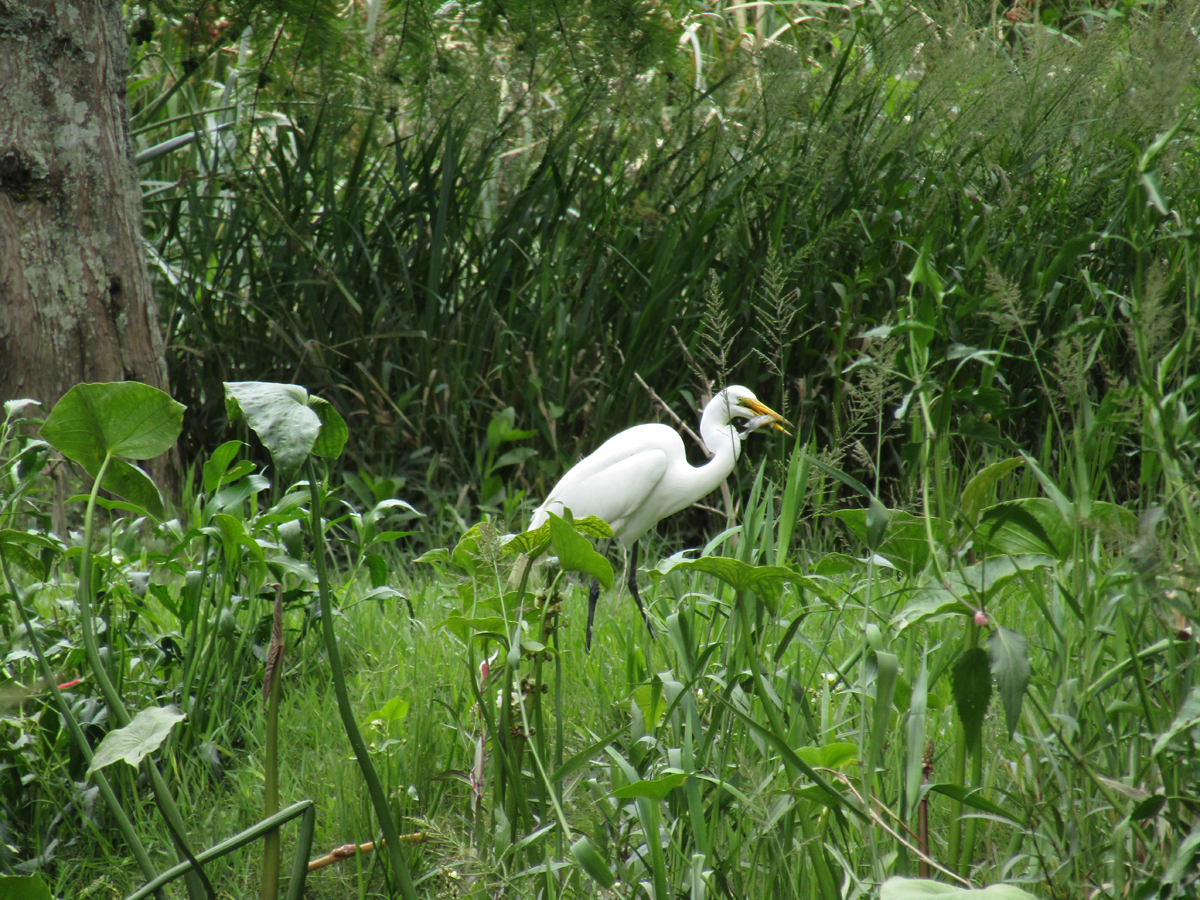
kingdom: Animalia
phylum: Chordata
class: Aves
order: Pelecaniformes
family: Ardeidae
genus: Ardea
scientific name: Ardea alba
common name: Great egret
